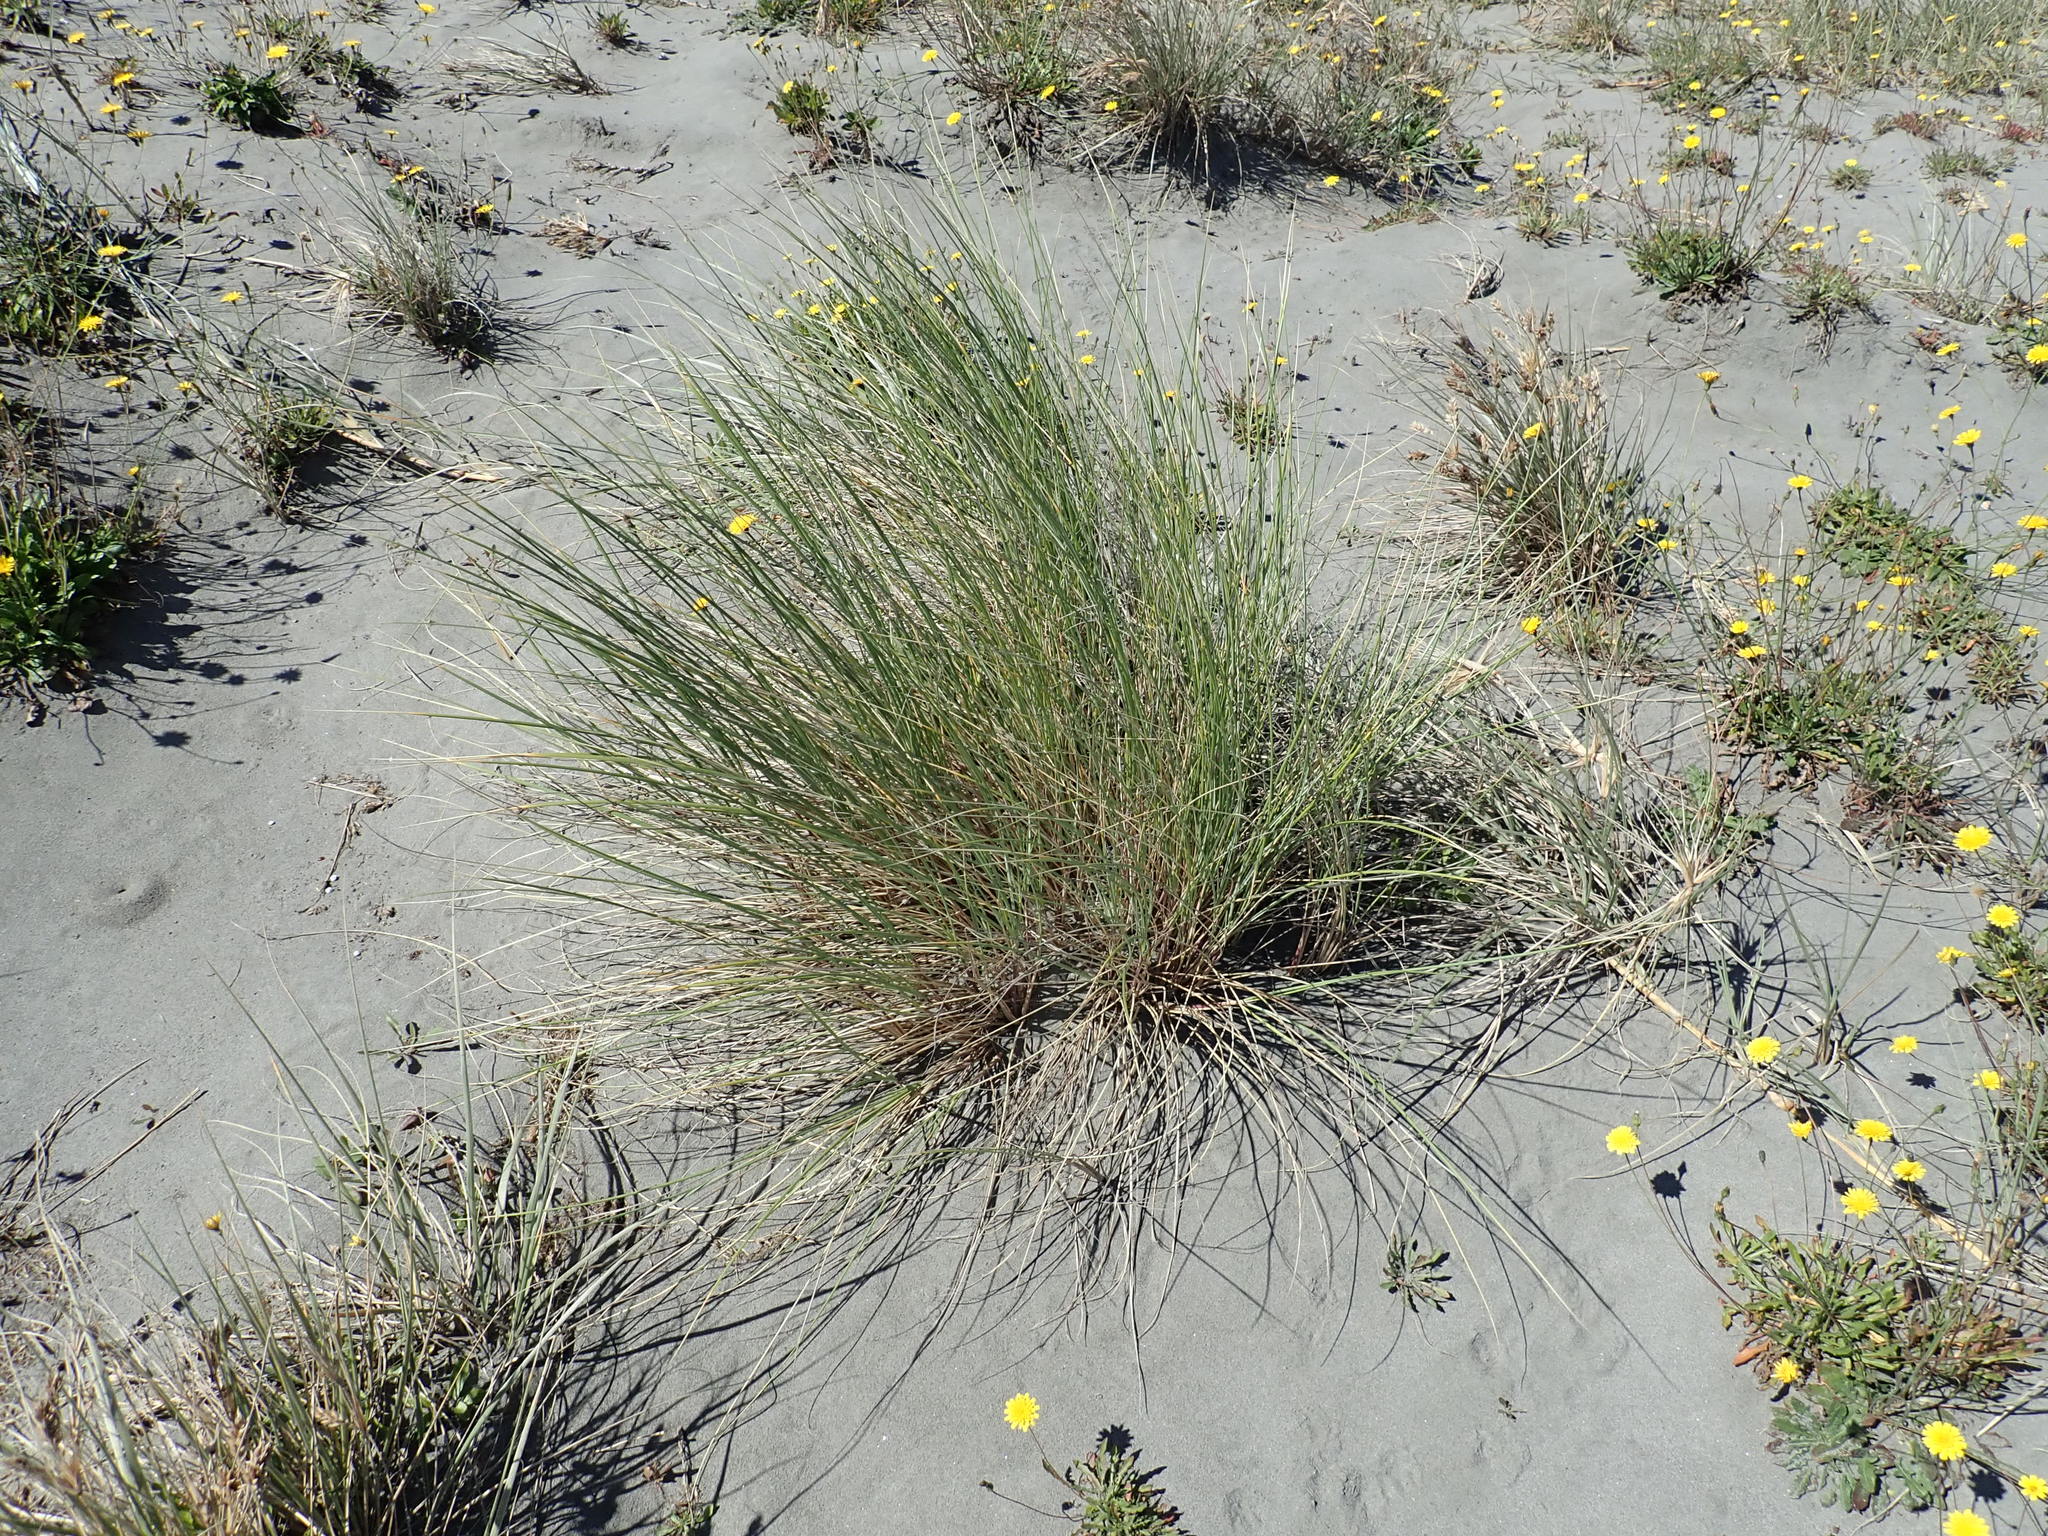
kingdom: Plantae
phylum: Tracheophyta
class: Liliopsida
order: Poales
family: Poaceae
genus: Calamagrostis
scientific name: Calamagrostis arenaria
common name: European beachgrass
